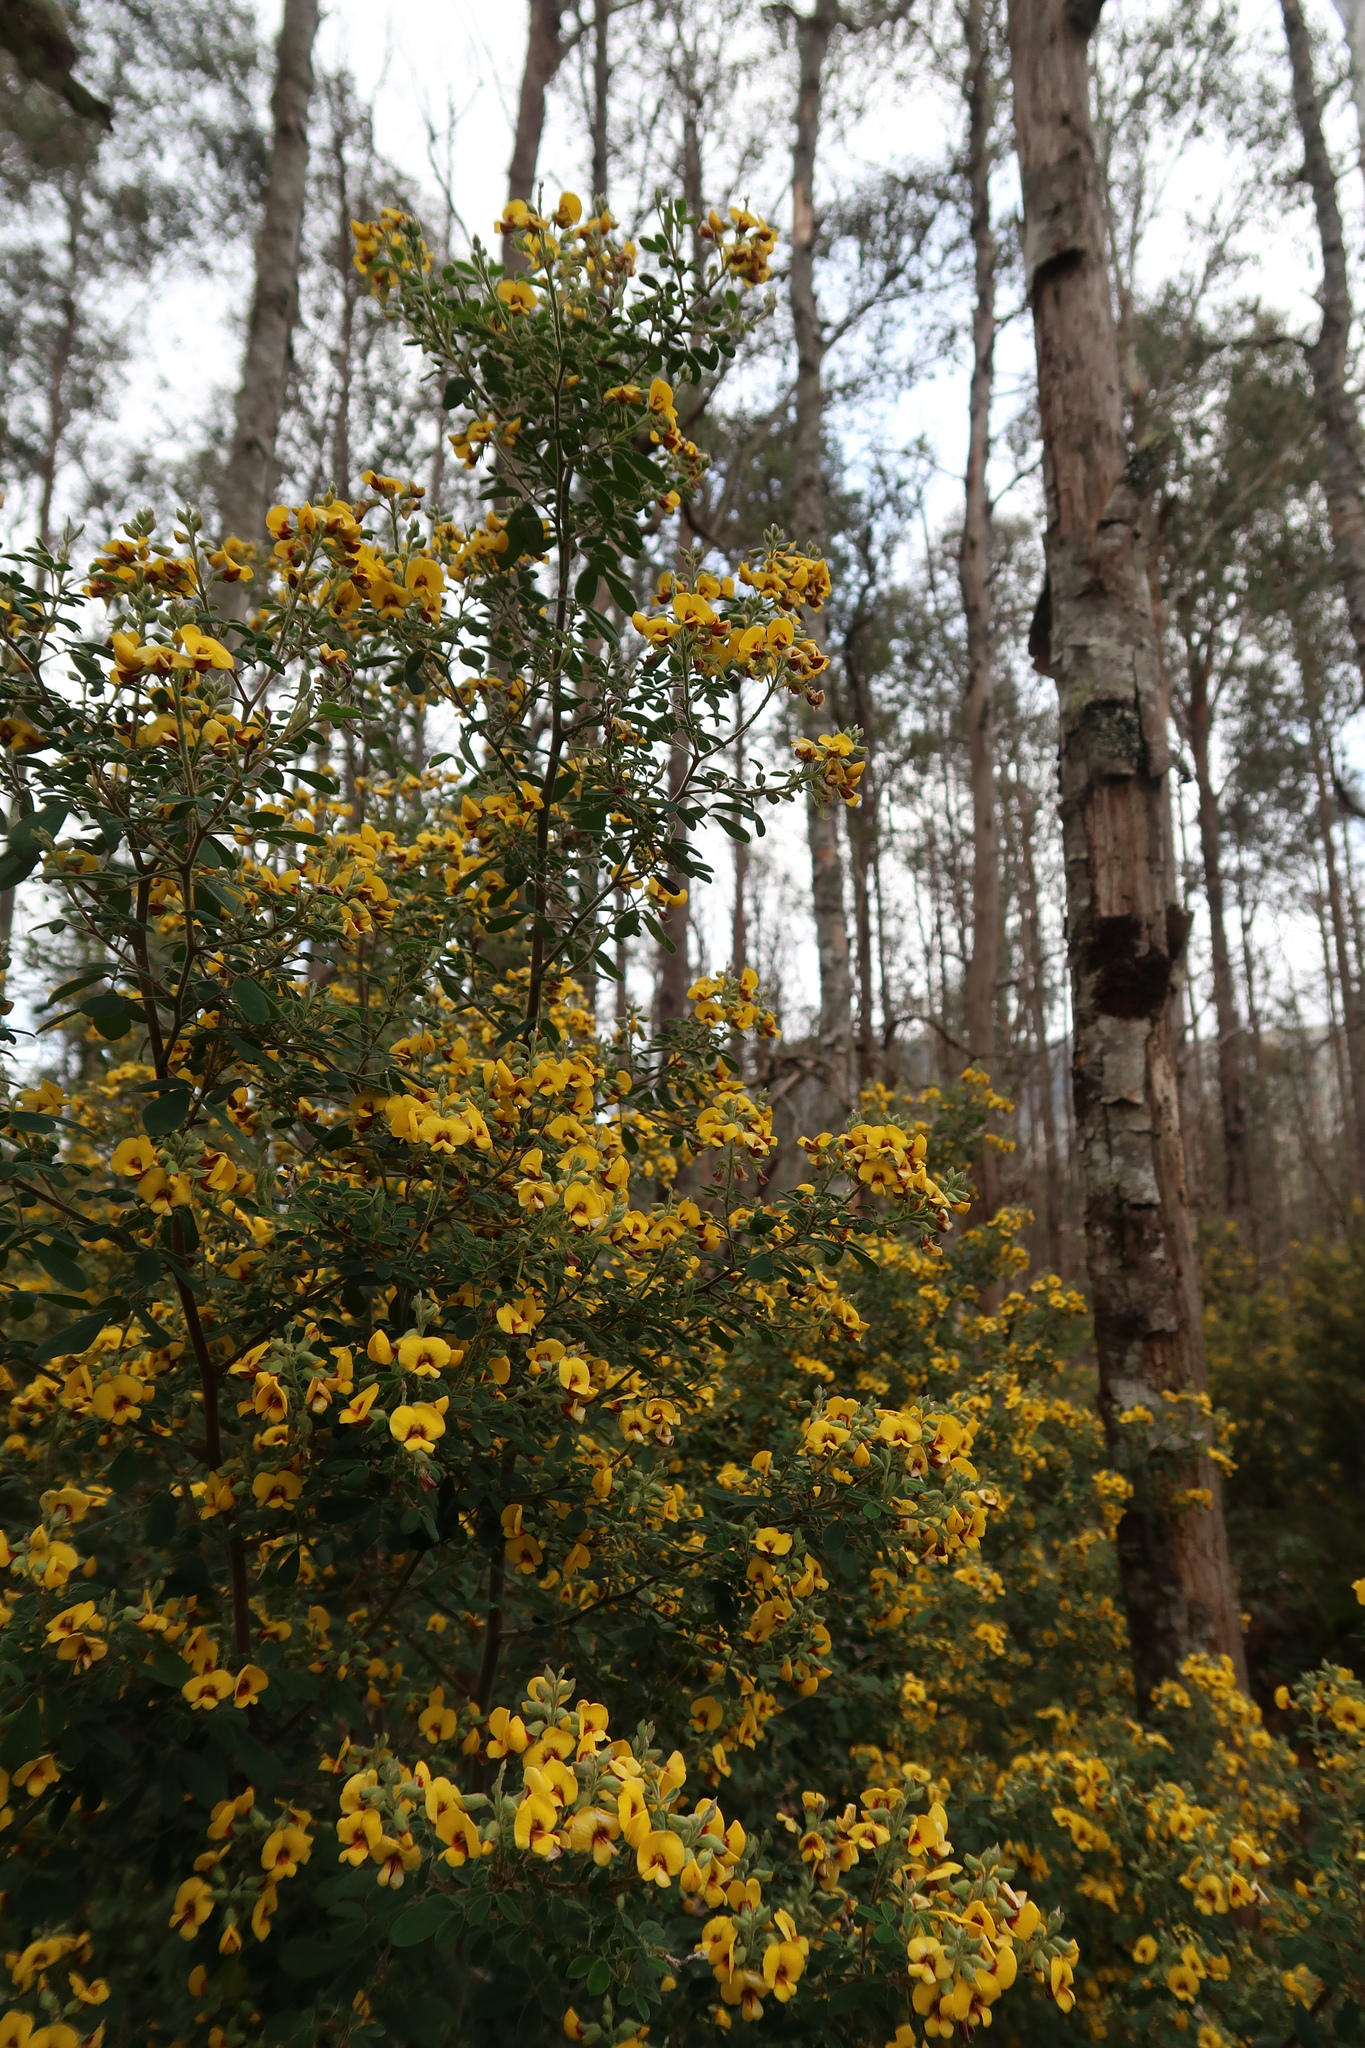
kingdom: Plantae
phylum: Tracheophyta
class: Magnoliopsida
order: Fabales
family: Fabaceae
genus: Goodia
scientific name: Goodia pubescens
